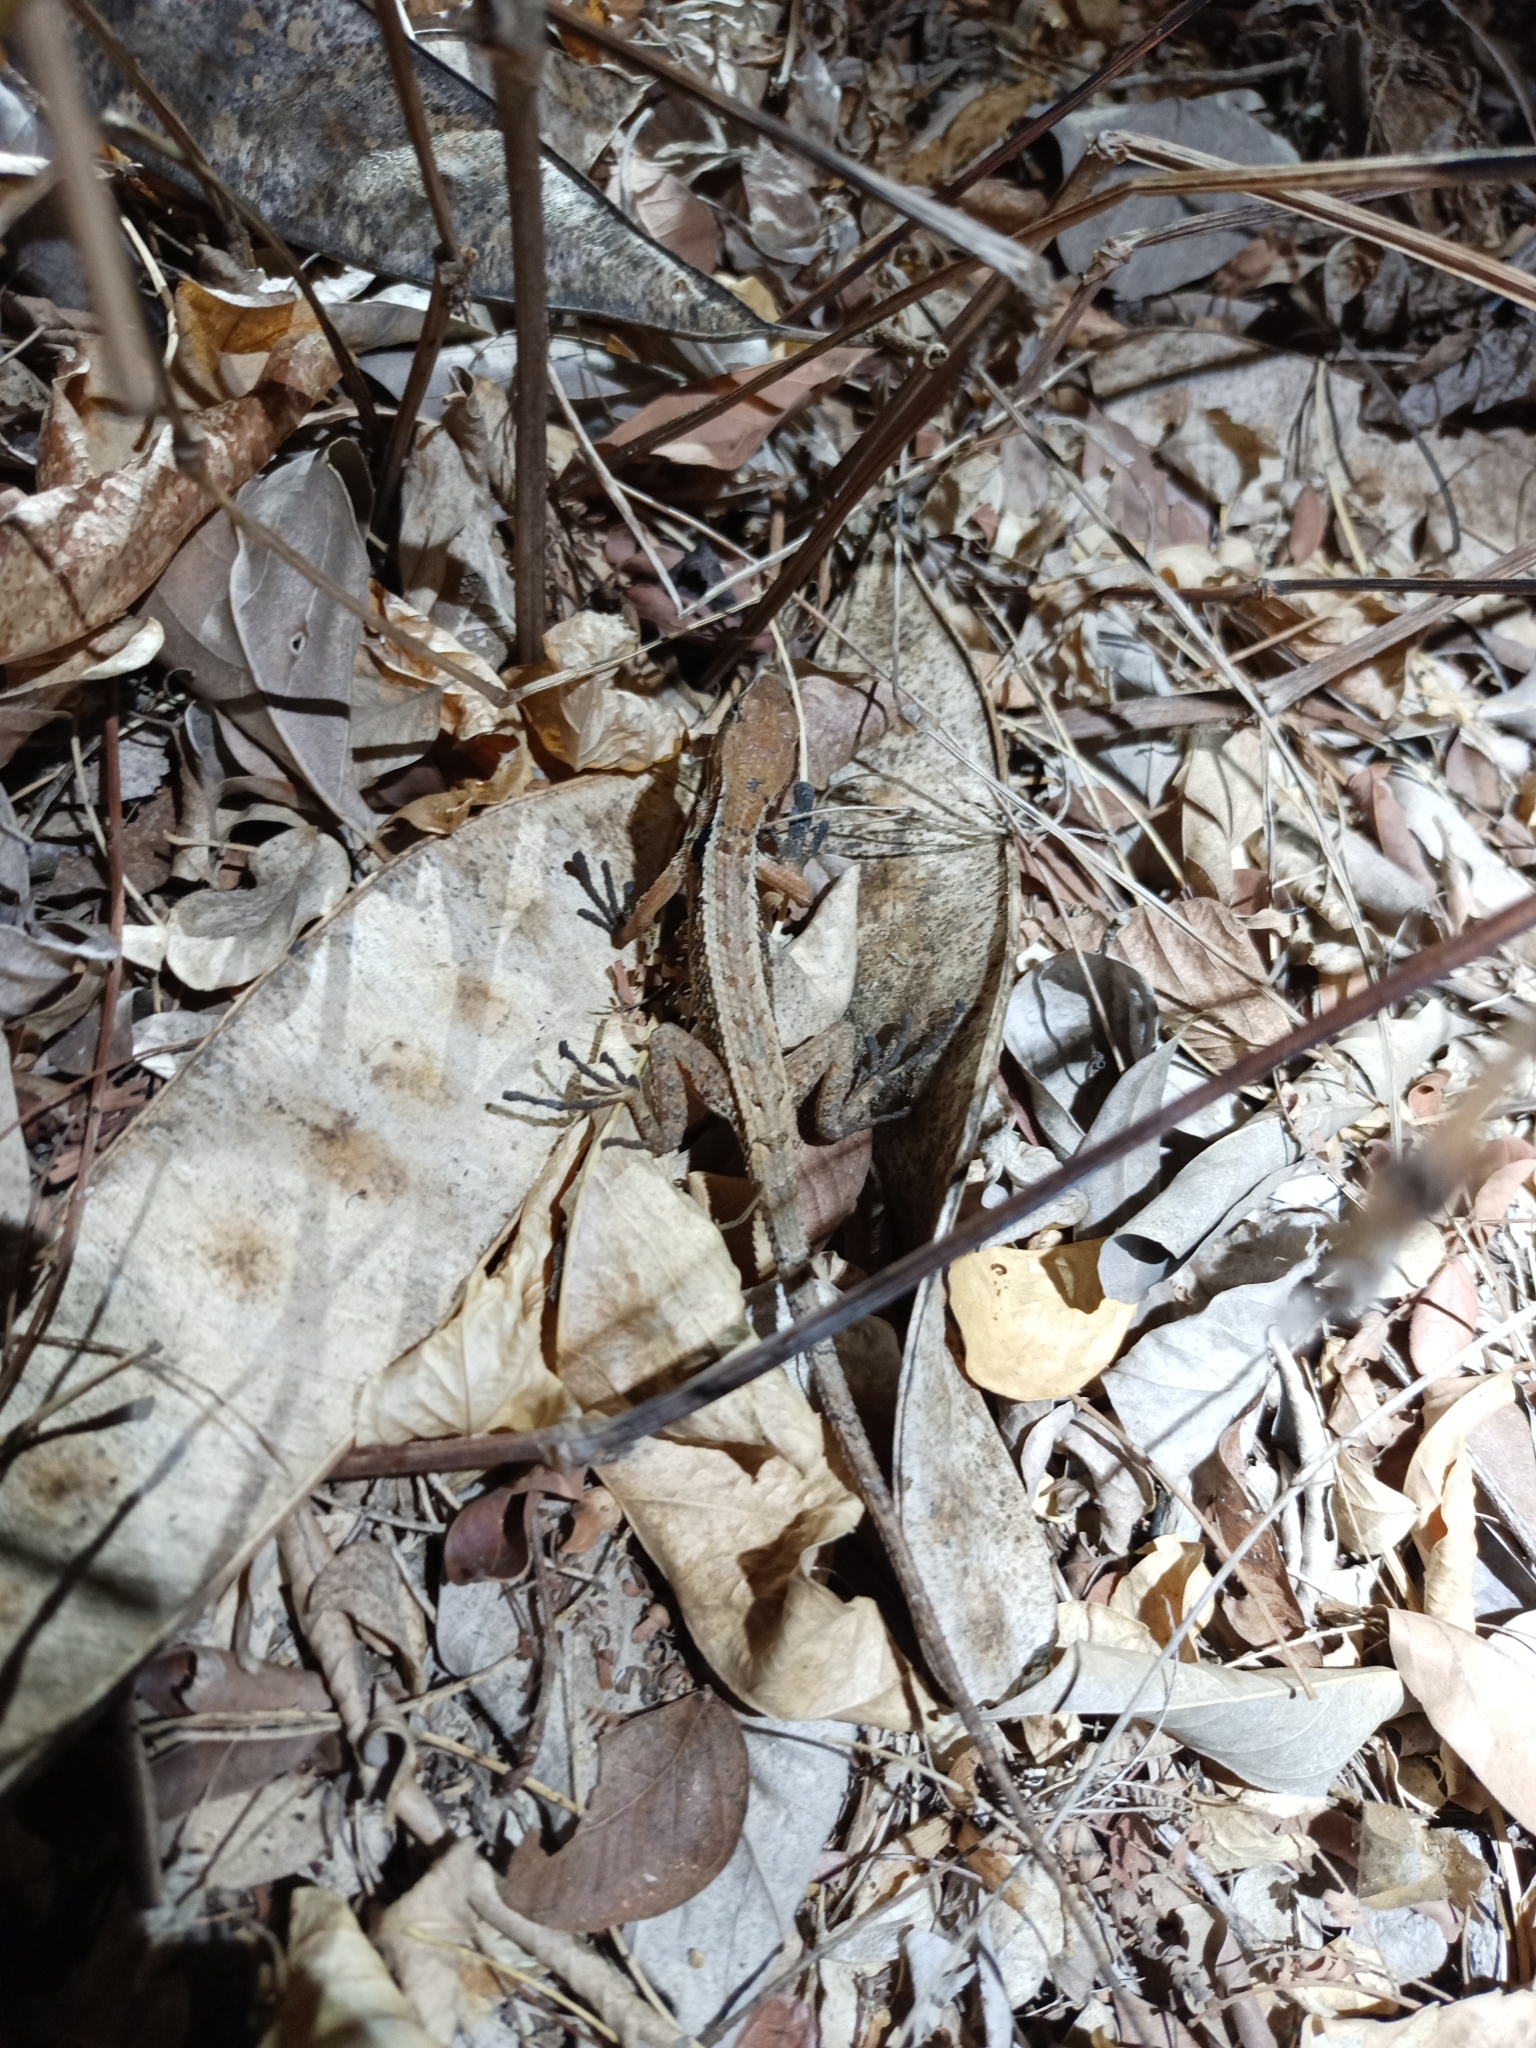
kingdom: Animalia
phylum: Chordata
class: Squamata
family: Phrynosomatidae
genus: Sceloporus
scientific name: Sceloporus siniferus
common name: Longtail spiny lizard
